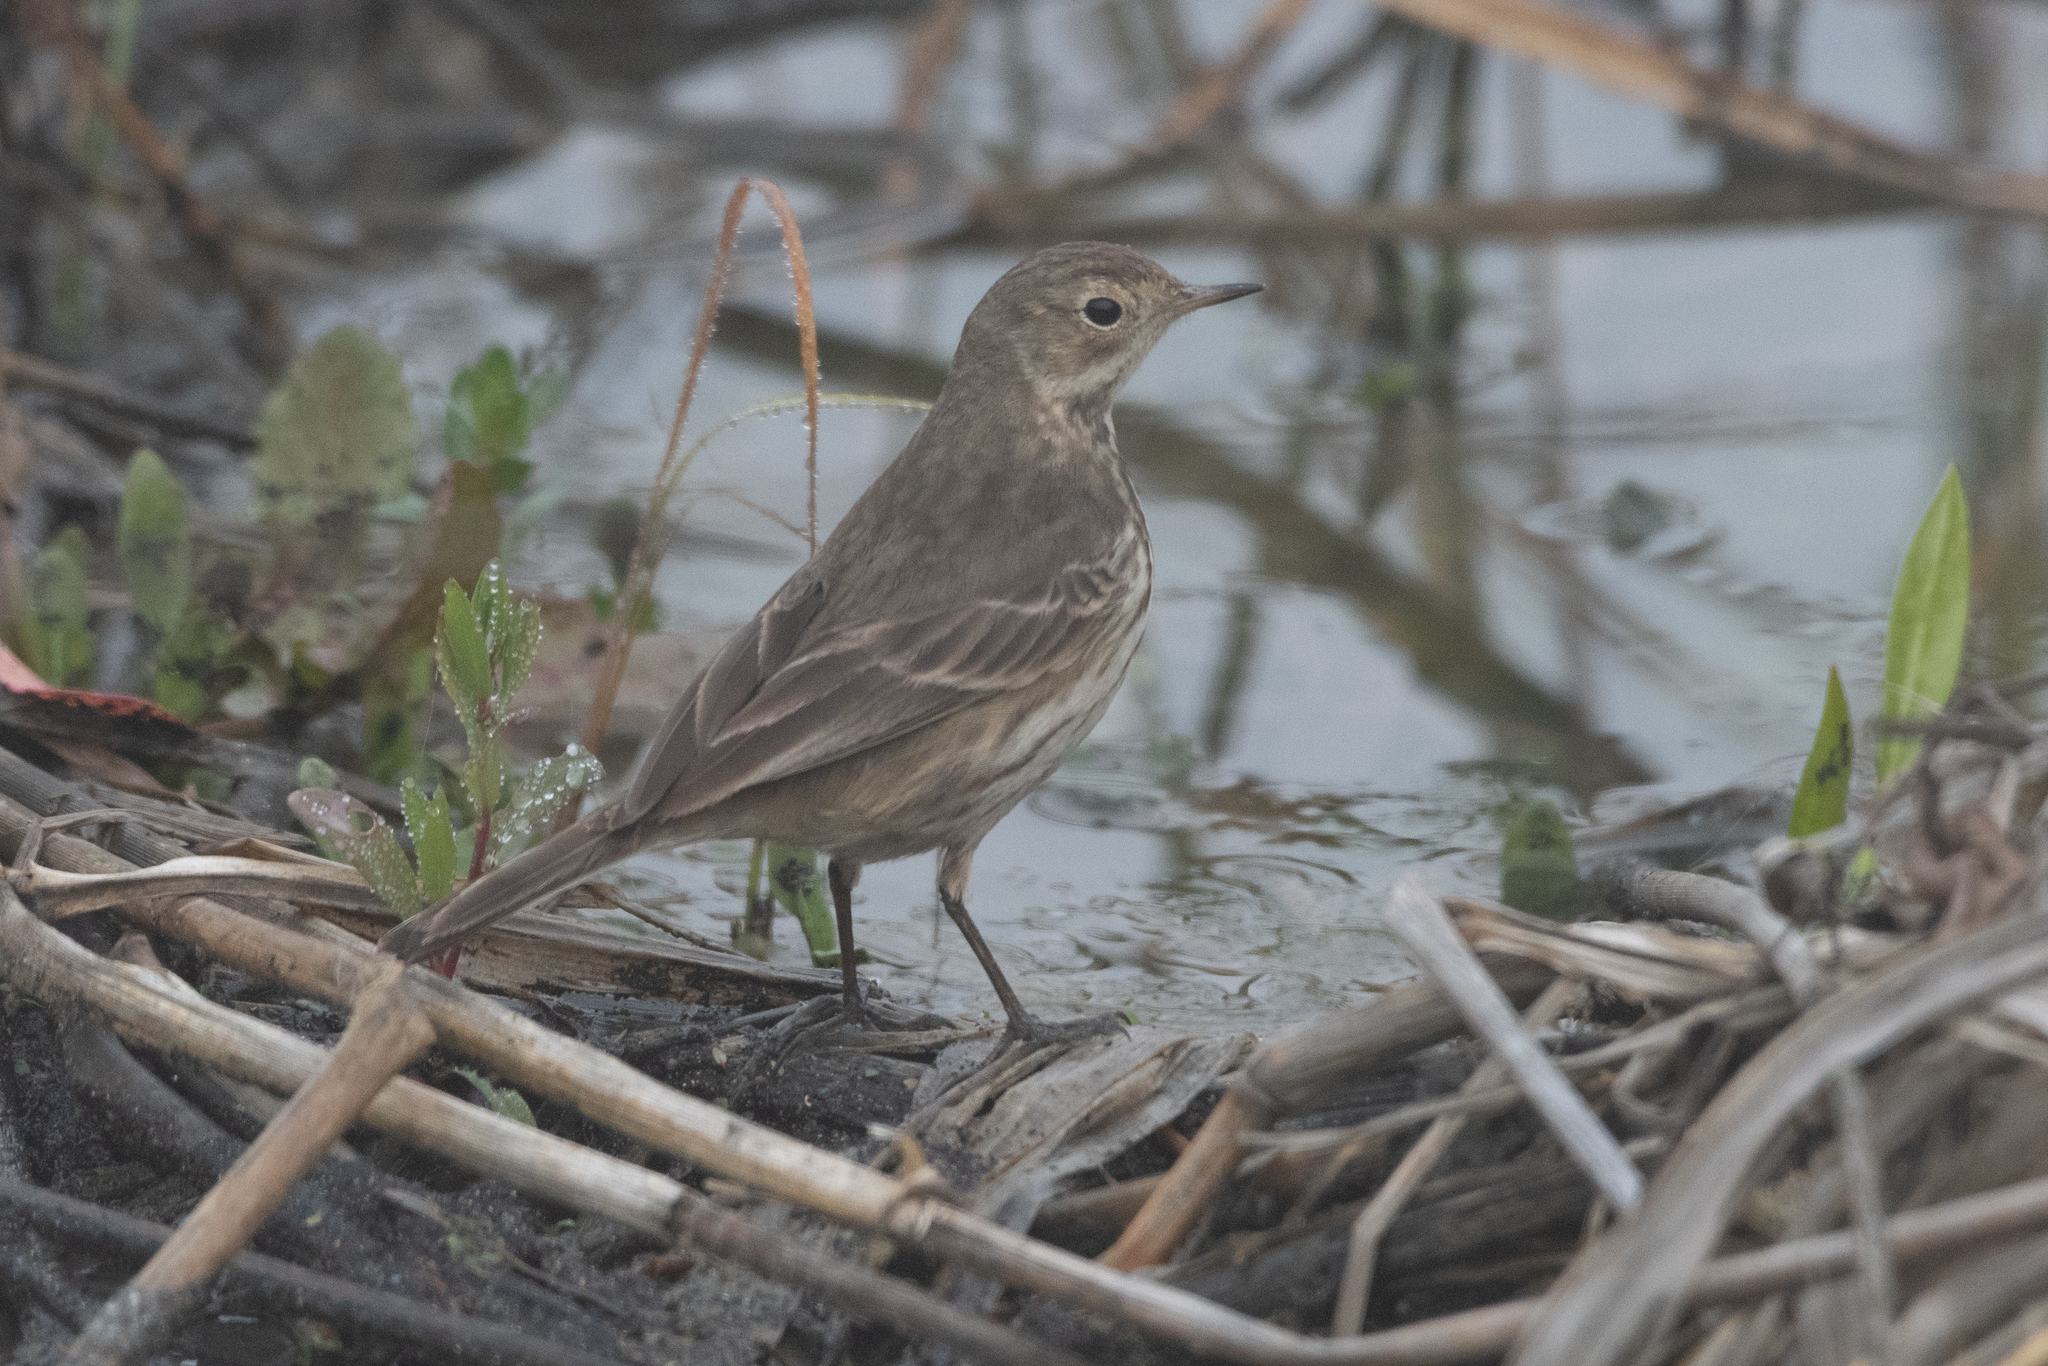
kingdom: Animalia
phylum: Chordata
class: Aves
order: Passeriformes
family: Motacillidae
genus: Anthus
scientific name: Anthus rubescens
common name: Buff-bellied pipit
